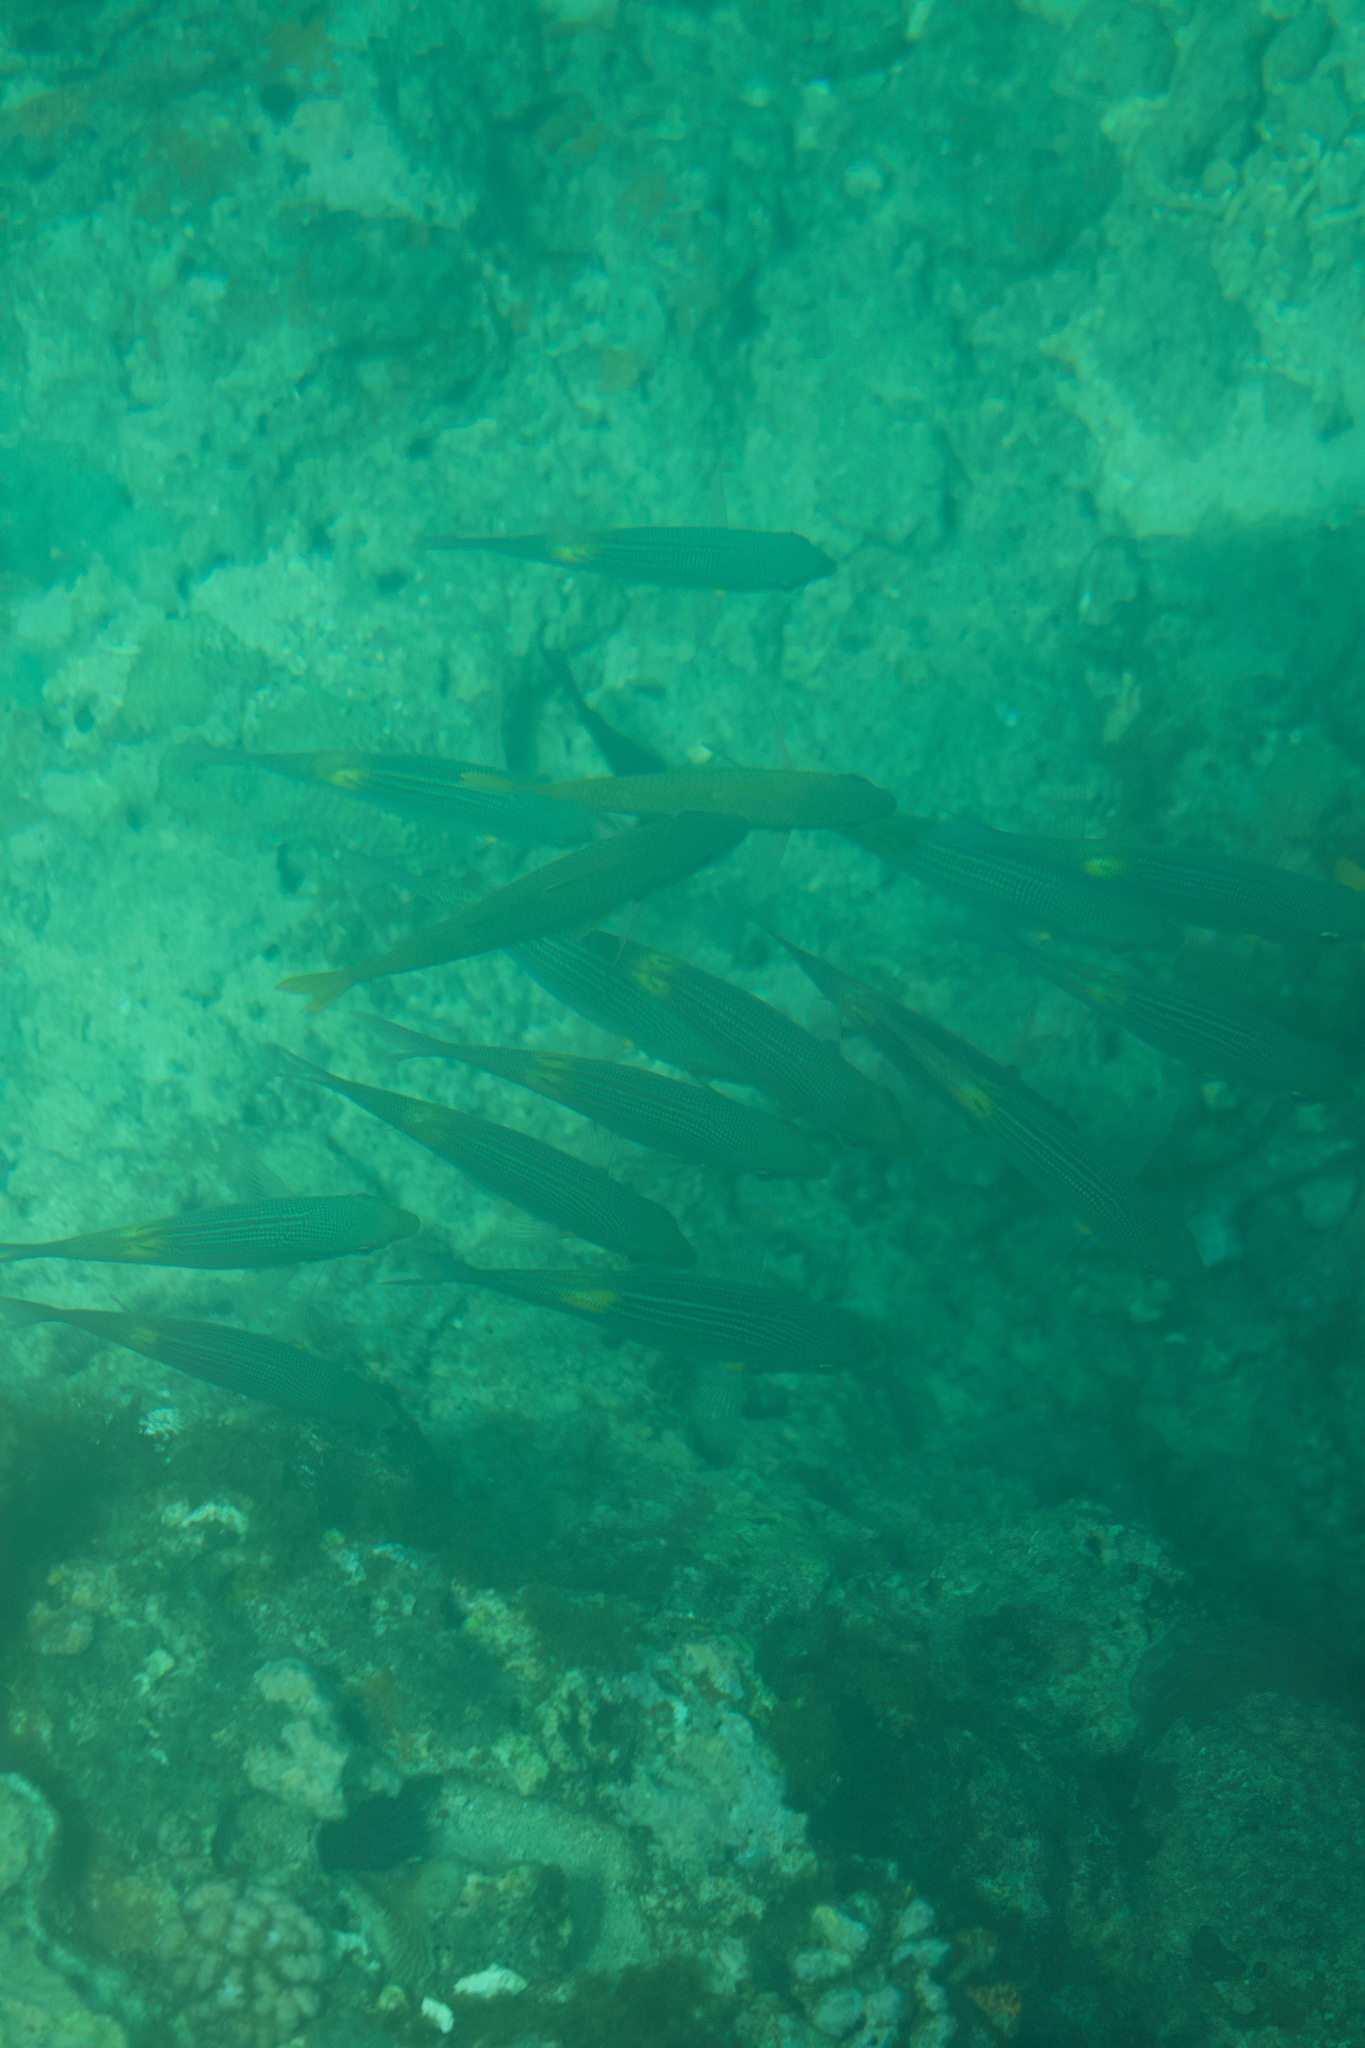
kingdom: Animalia
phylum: Chordata
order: Perciformes
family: Lethrinidae
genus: Gnathodentex
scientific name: Gnathodentex aureolineatus
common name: Gold-lined sea bream
